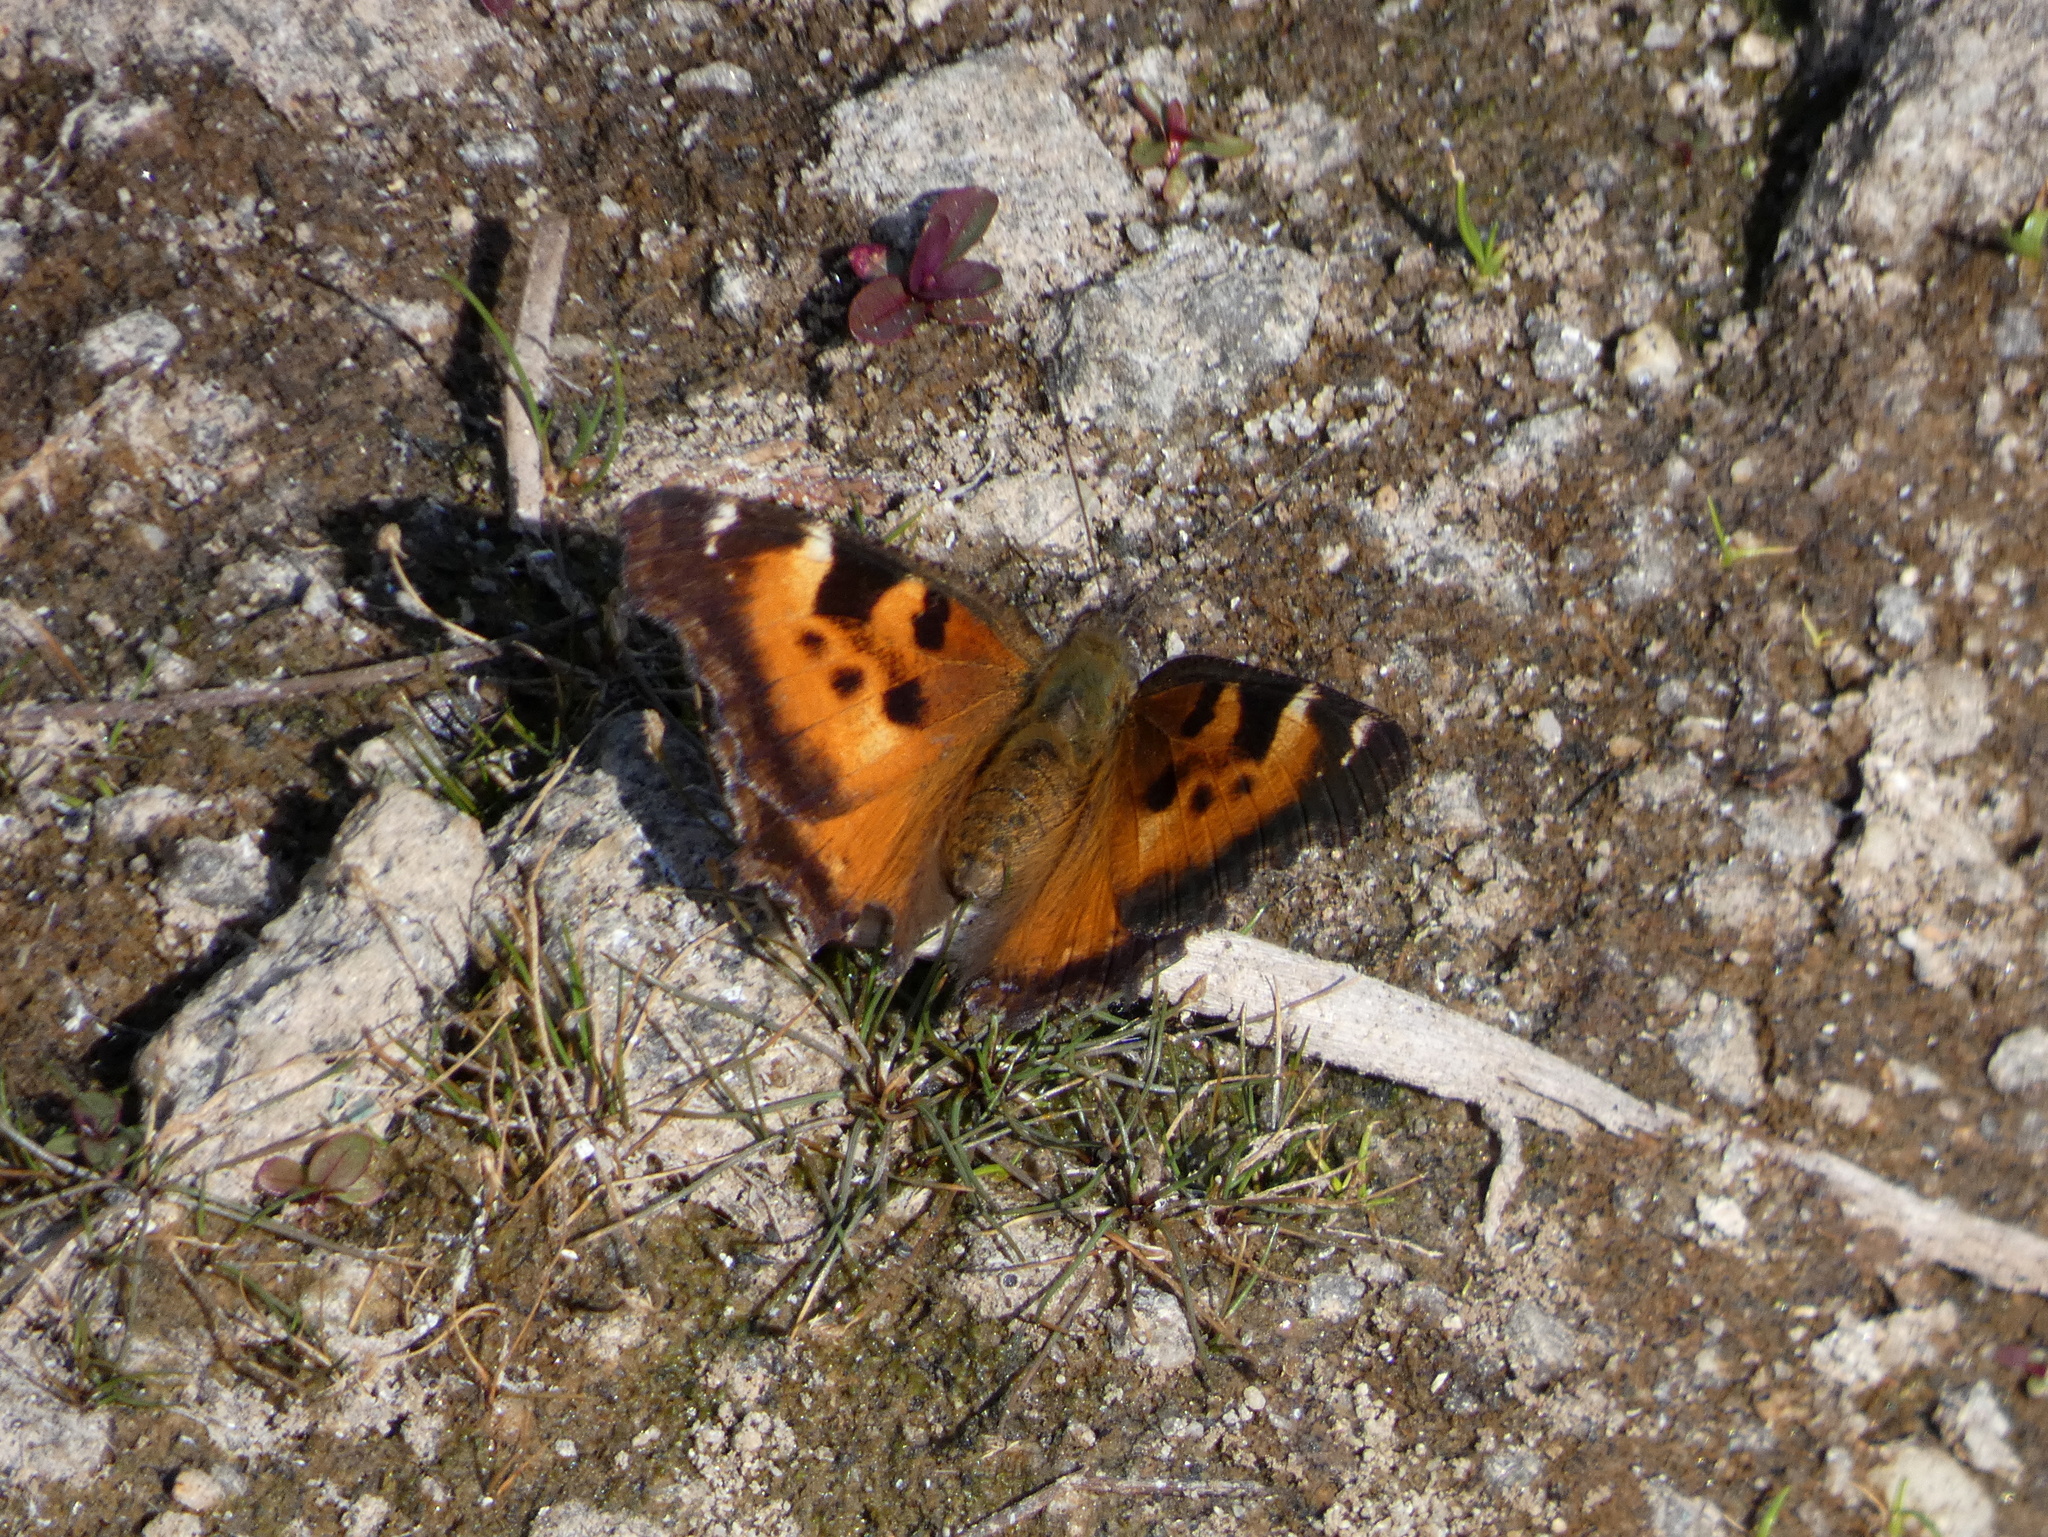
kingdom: Animalia
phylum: Arthropoda
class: Insecta
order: Lepidoptera
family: Nymphalidae
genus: Nymphalis
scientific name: Nymphalis californica
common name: California tortoiseshell
